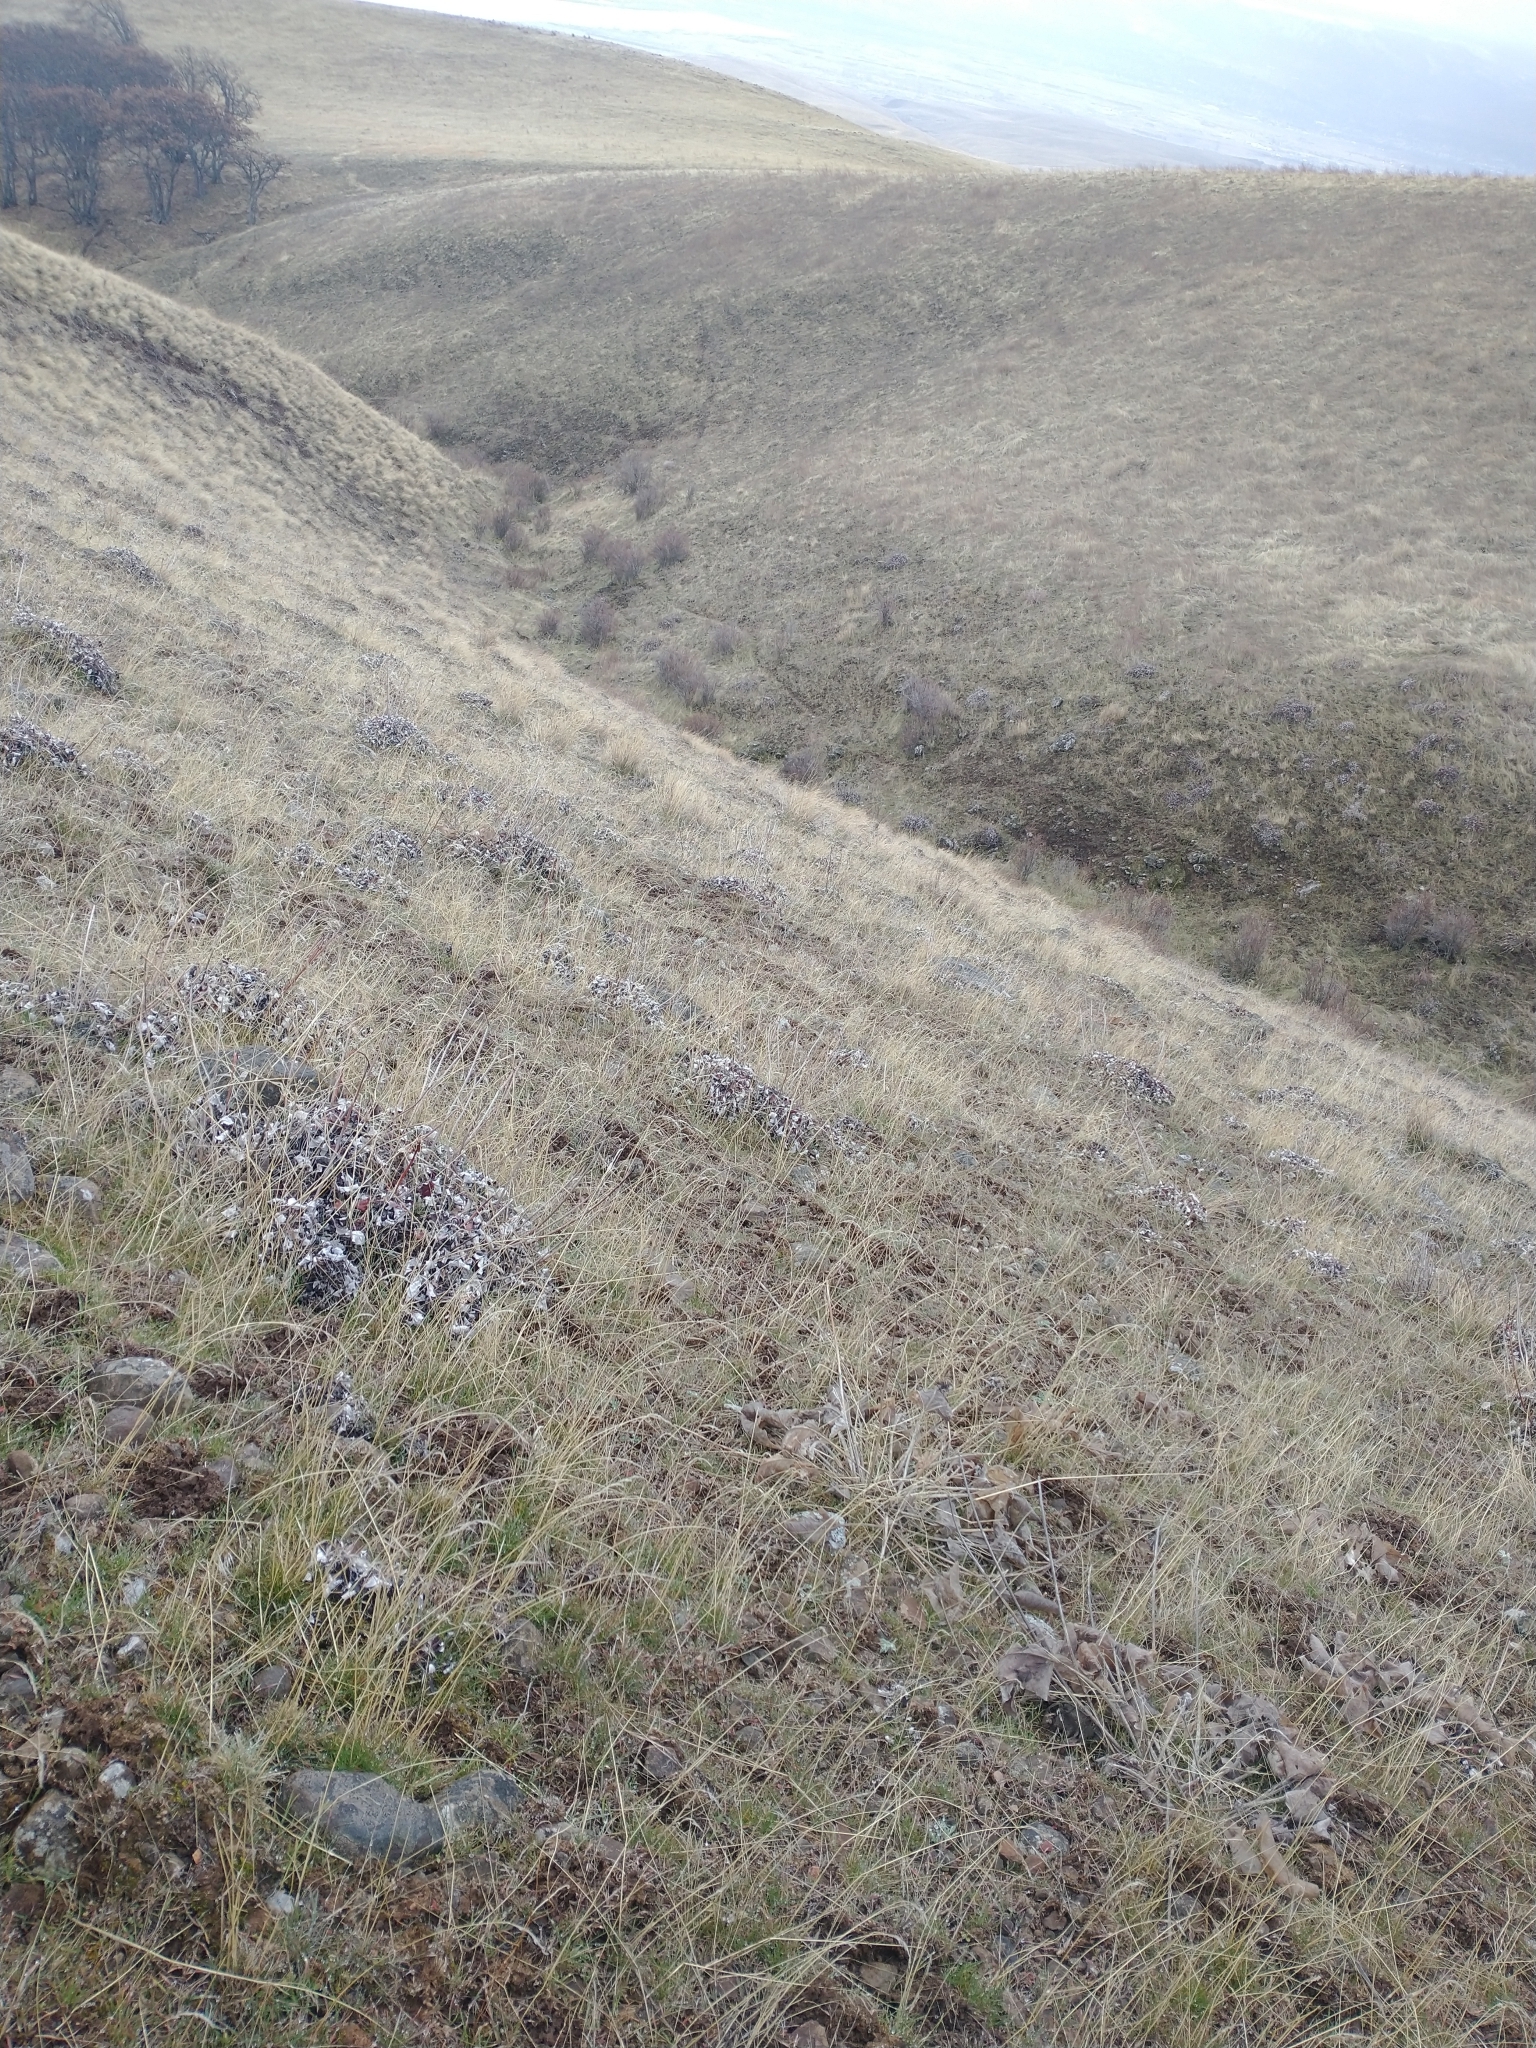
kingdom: Plantae
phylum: Tracheophyta
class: Magnoliopsida
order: Caryophyllales
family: Polygonaceae
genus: Eriogonum
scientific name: Eriogonum compositum
